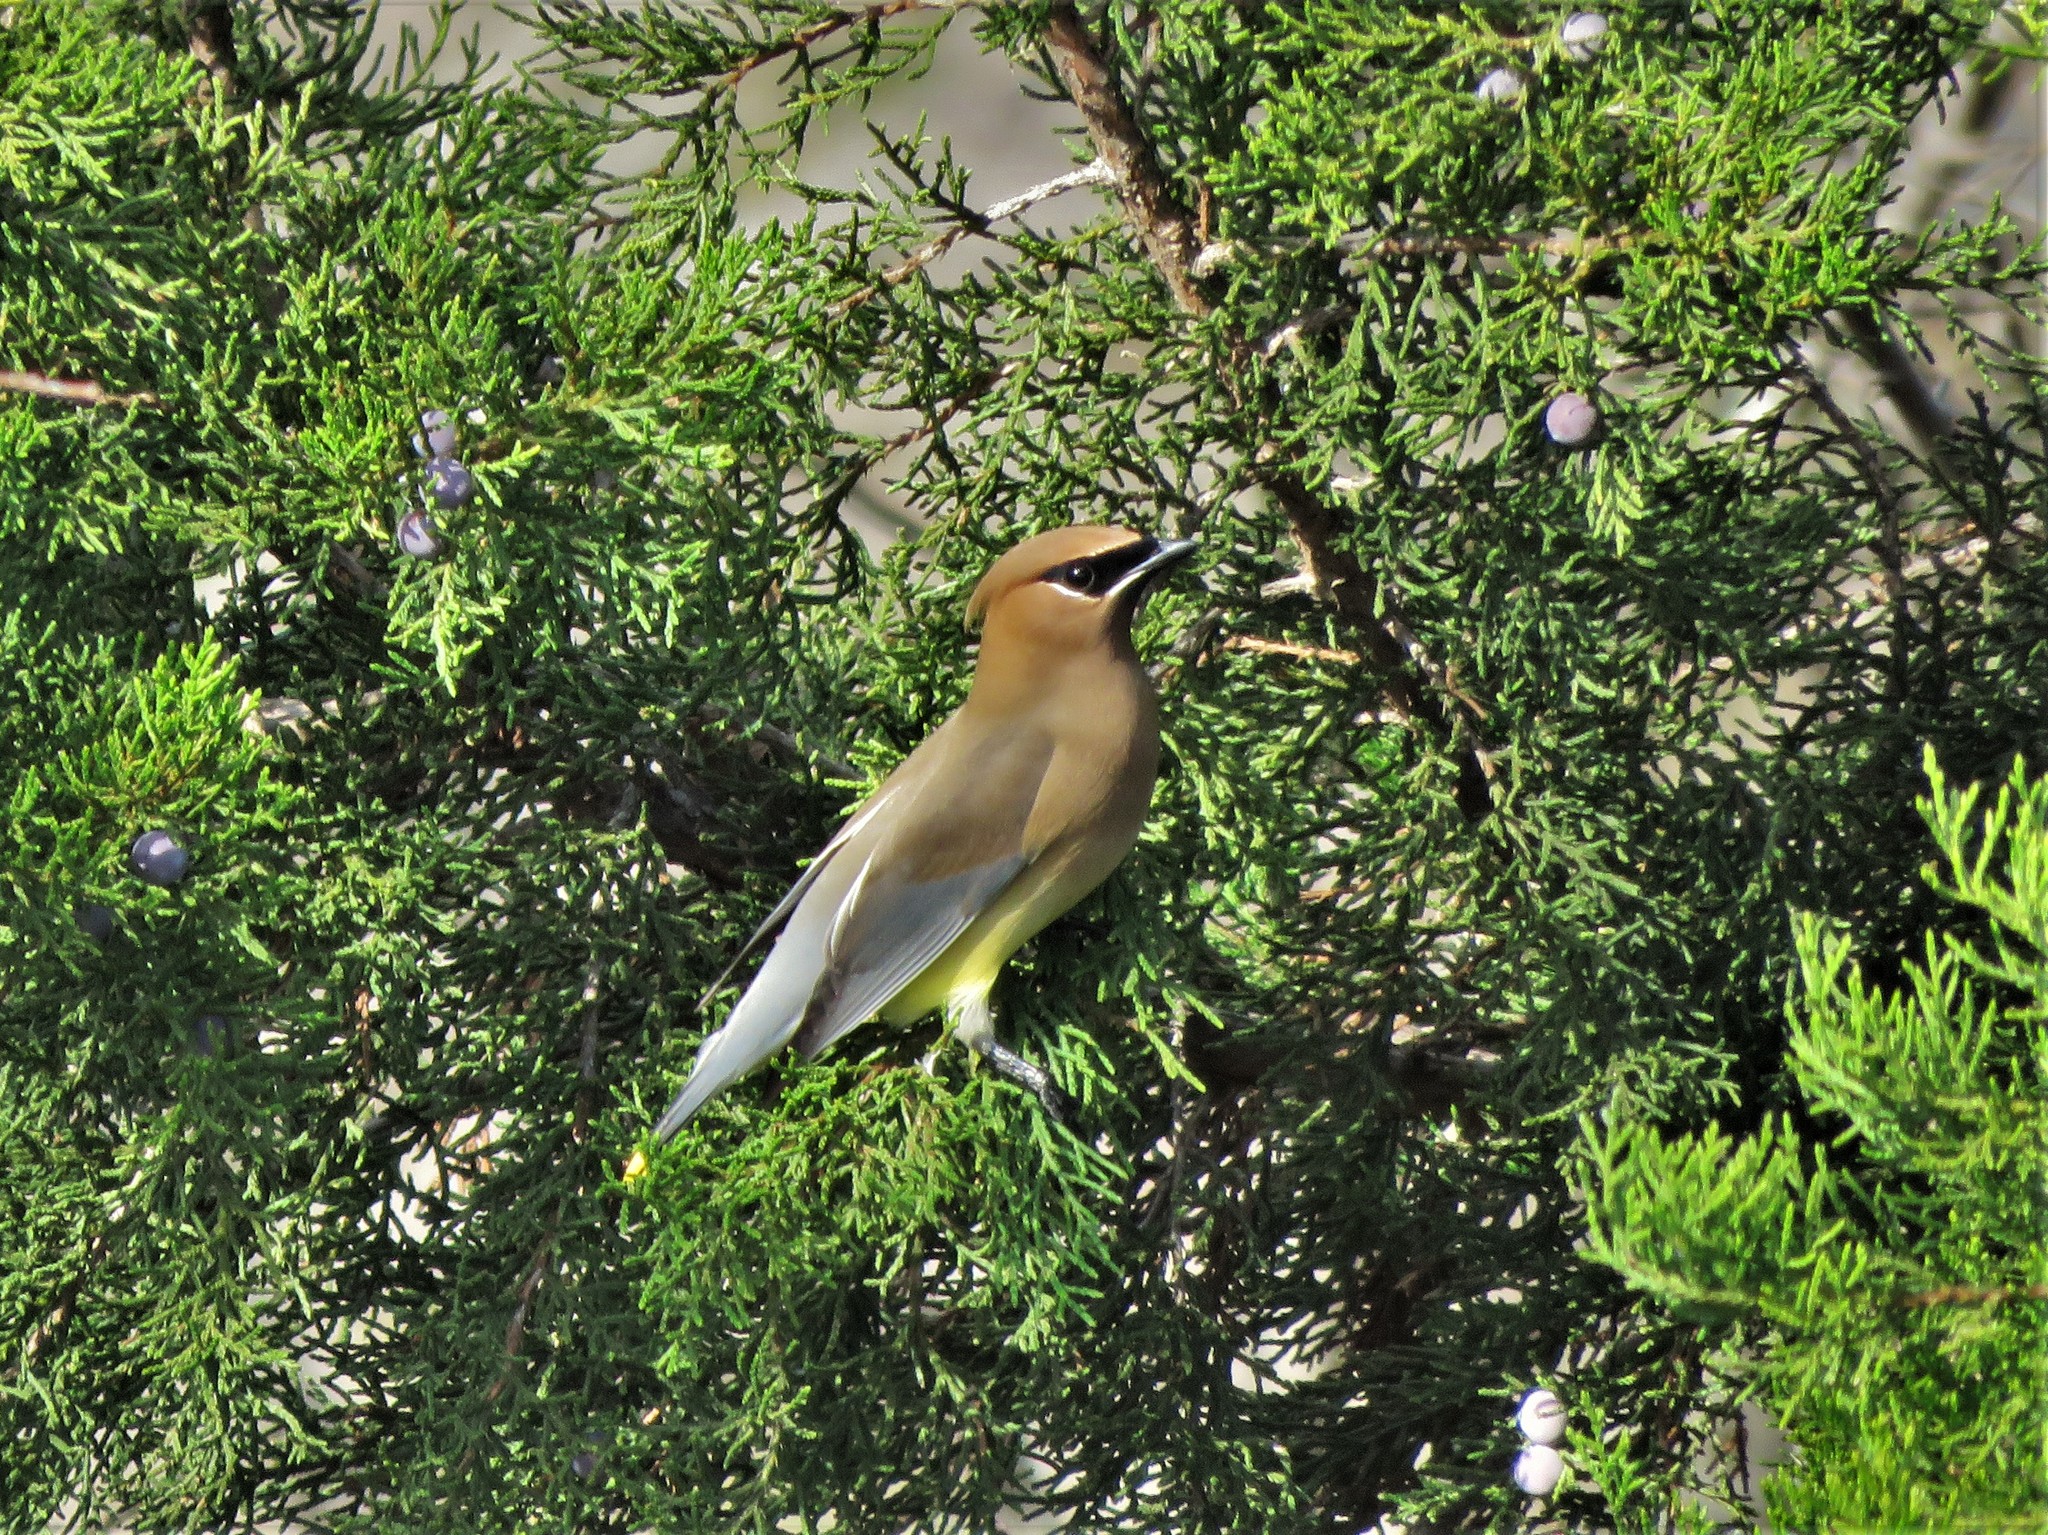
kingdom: Animalia
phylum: Chordata
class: Aves
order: Passeriformes
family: Bombycillidae
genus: Bombycilla
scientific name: Bombycilla cedrorum
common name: Cedar waxwing
